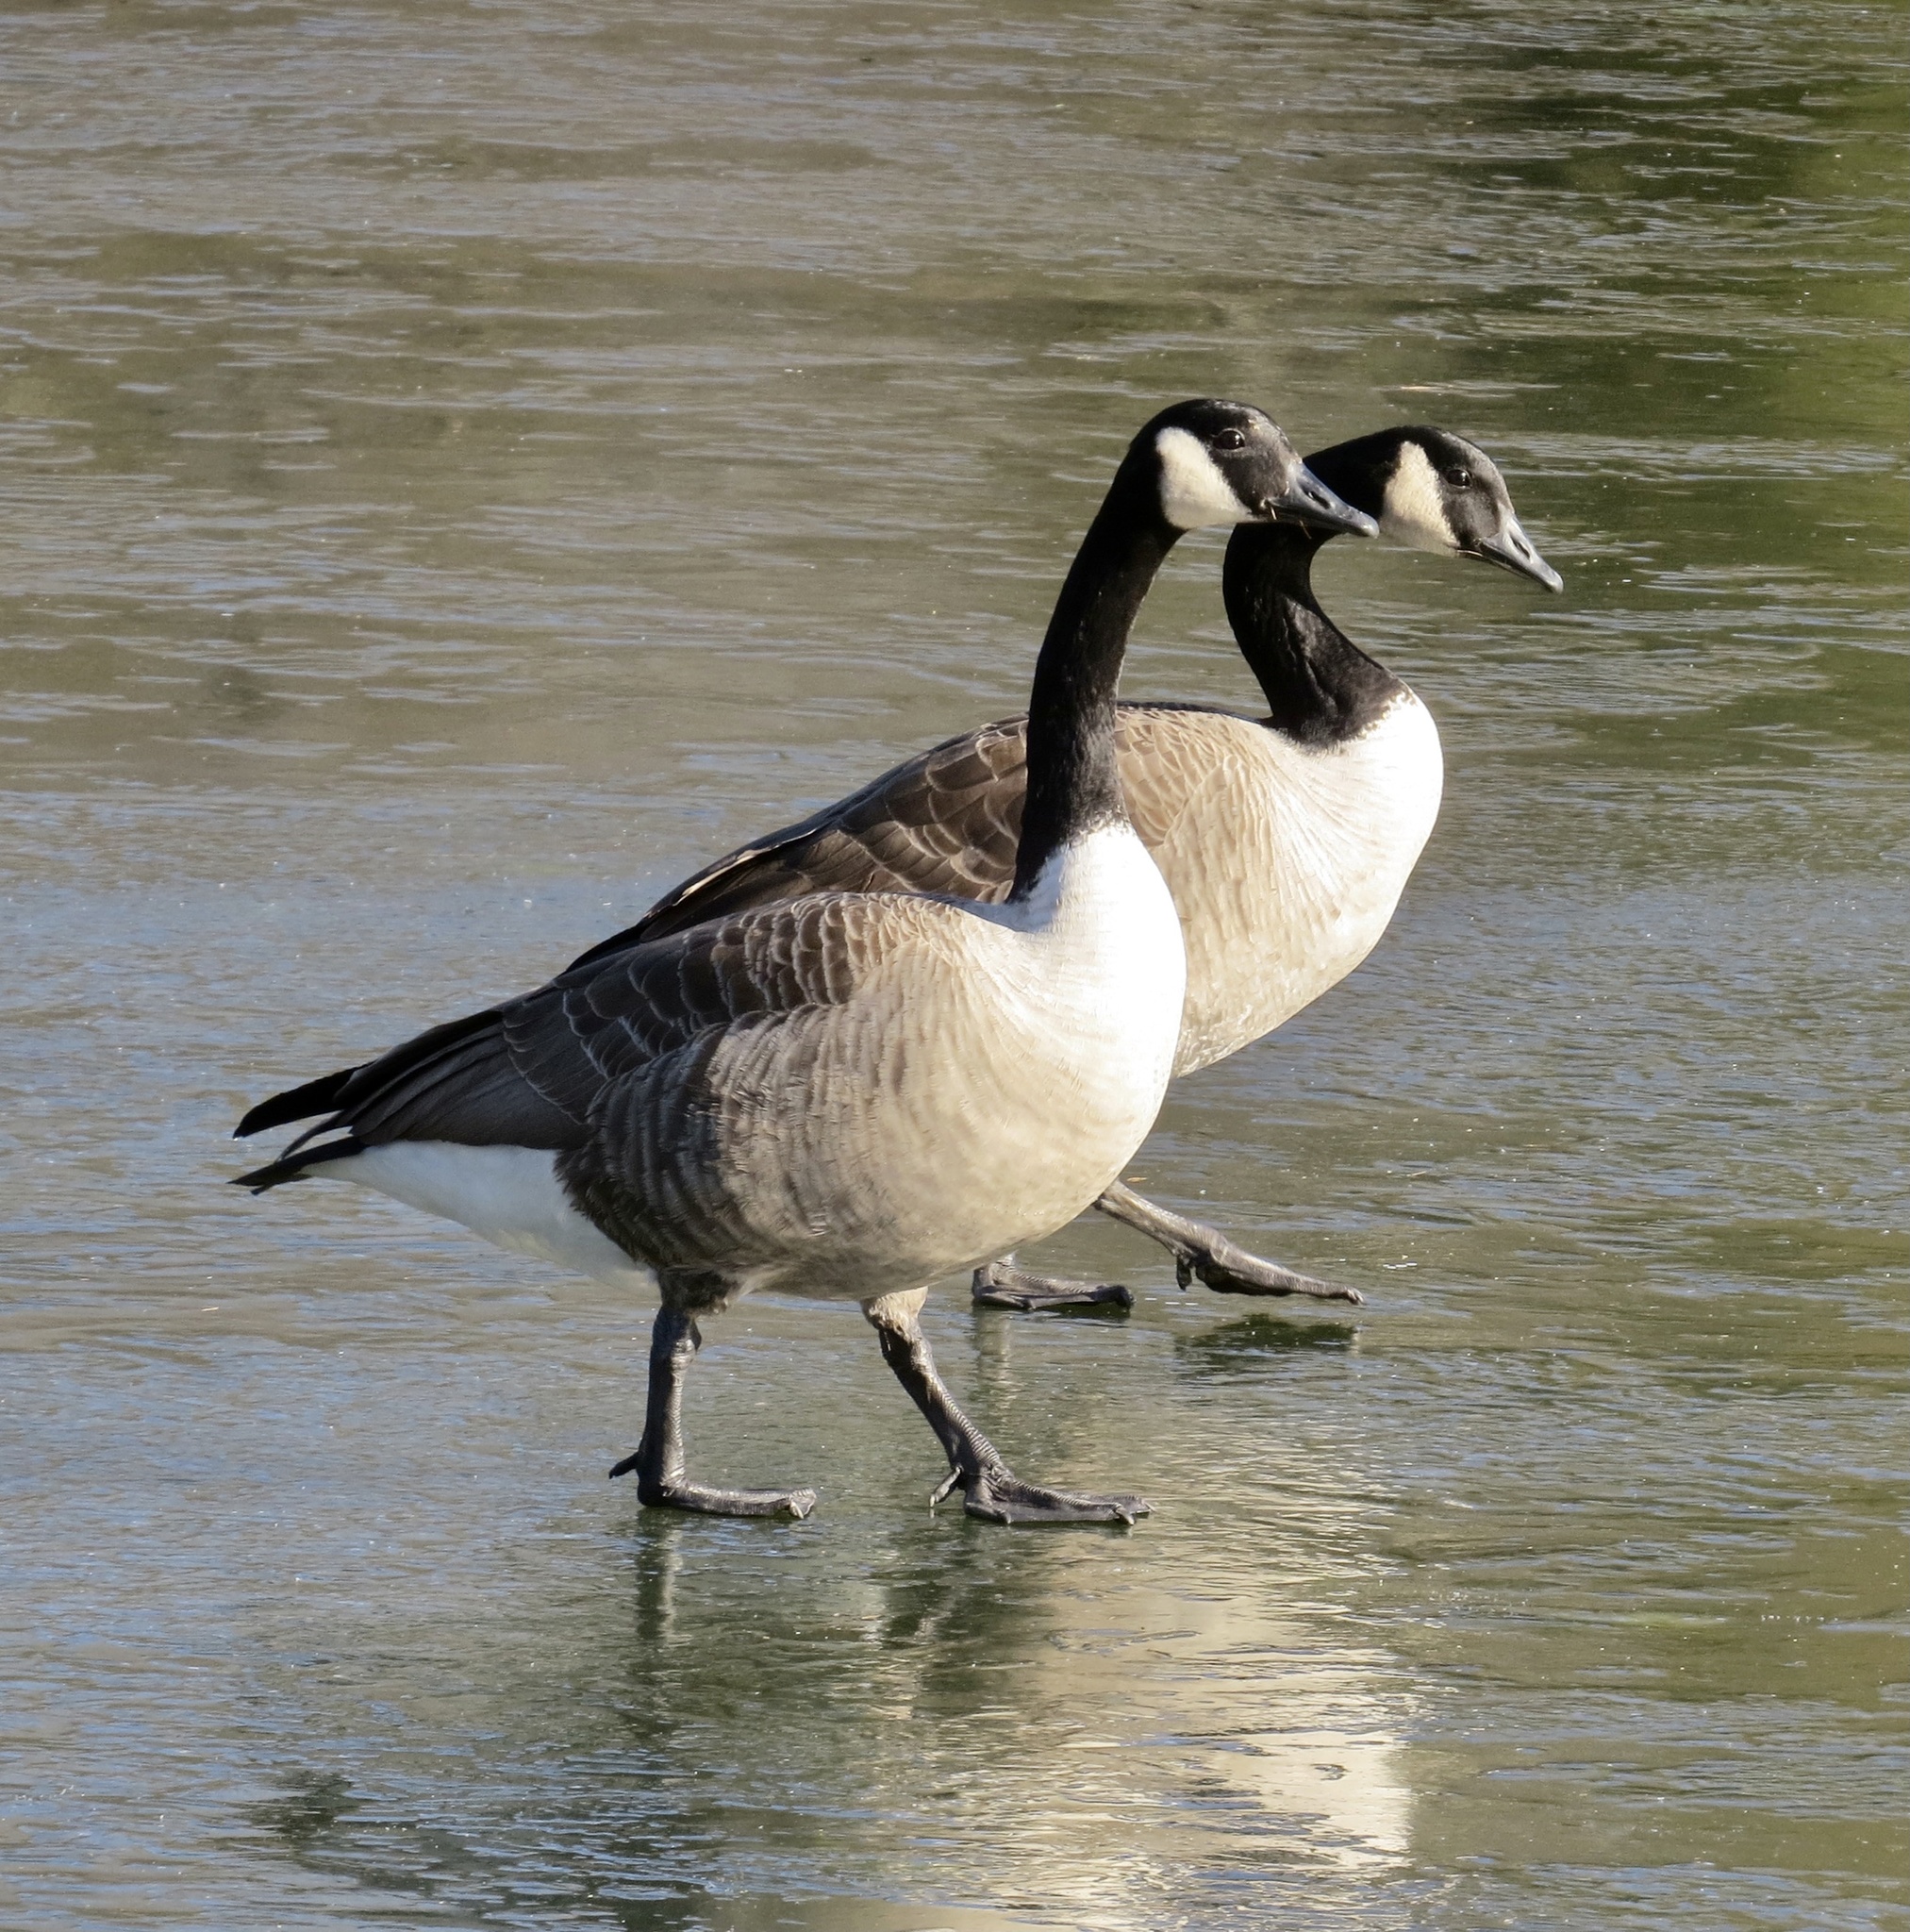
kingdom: Animalia
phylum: Chordata
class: Aves
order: Anseriformes
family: Anatidae
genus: Branta
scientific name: Branta canadensis
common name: Canada goose
